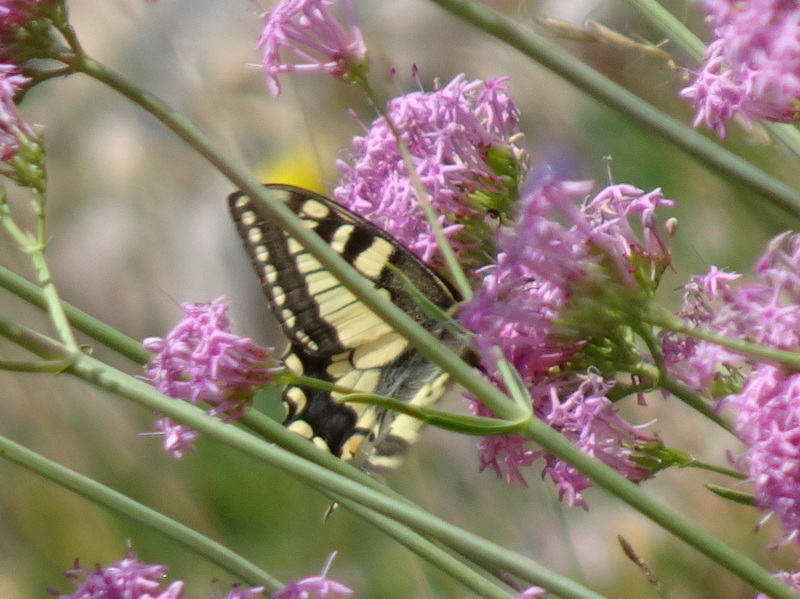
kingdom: Animalia
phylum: Arthropoda
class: Insecta
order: Lepidoptera
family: Papilionidae
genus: Papilio
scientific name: Papilio machaon
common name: Swallowtail
